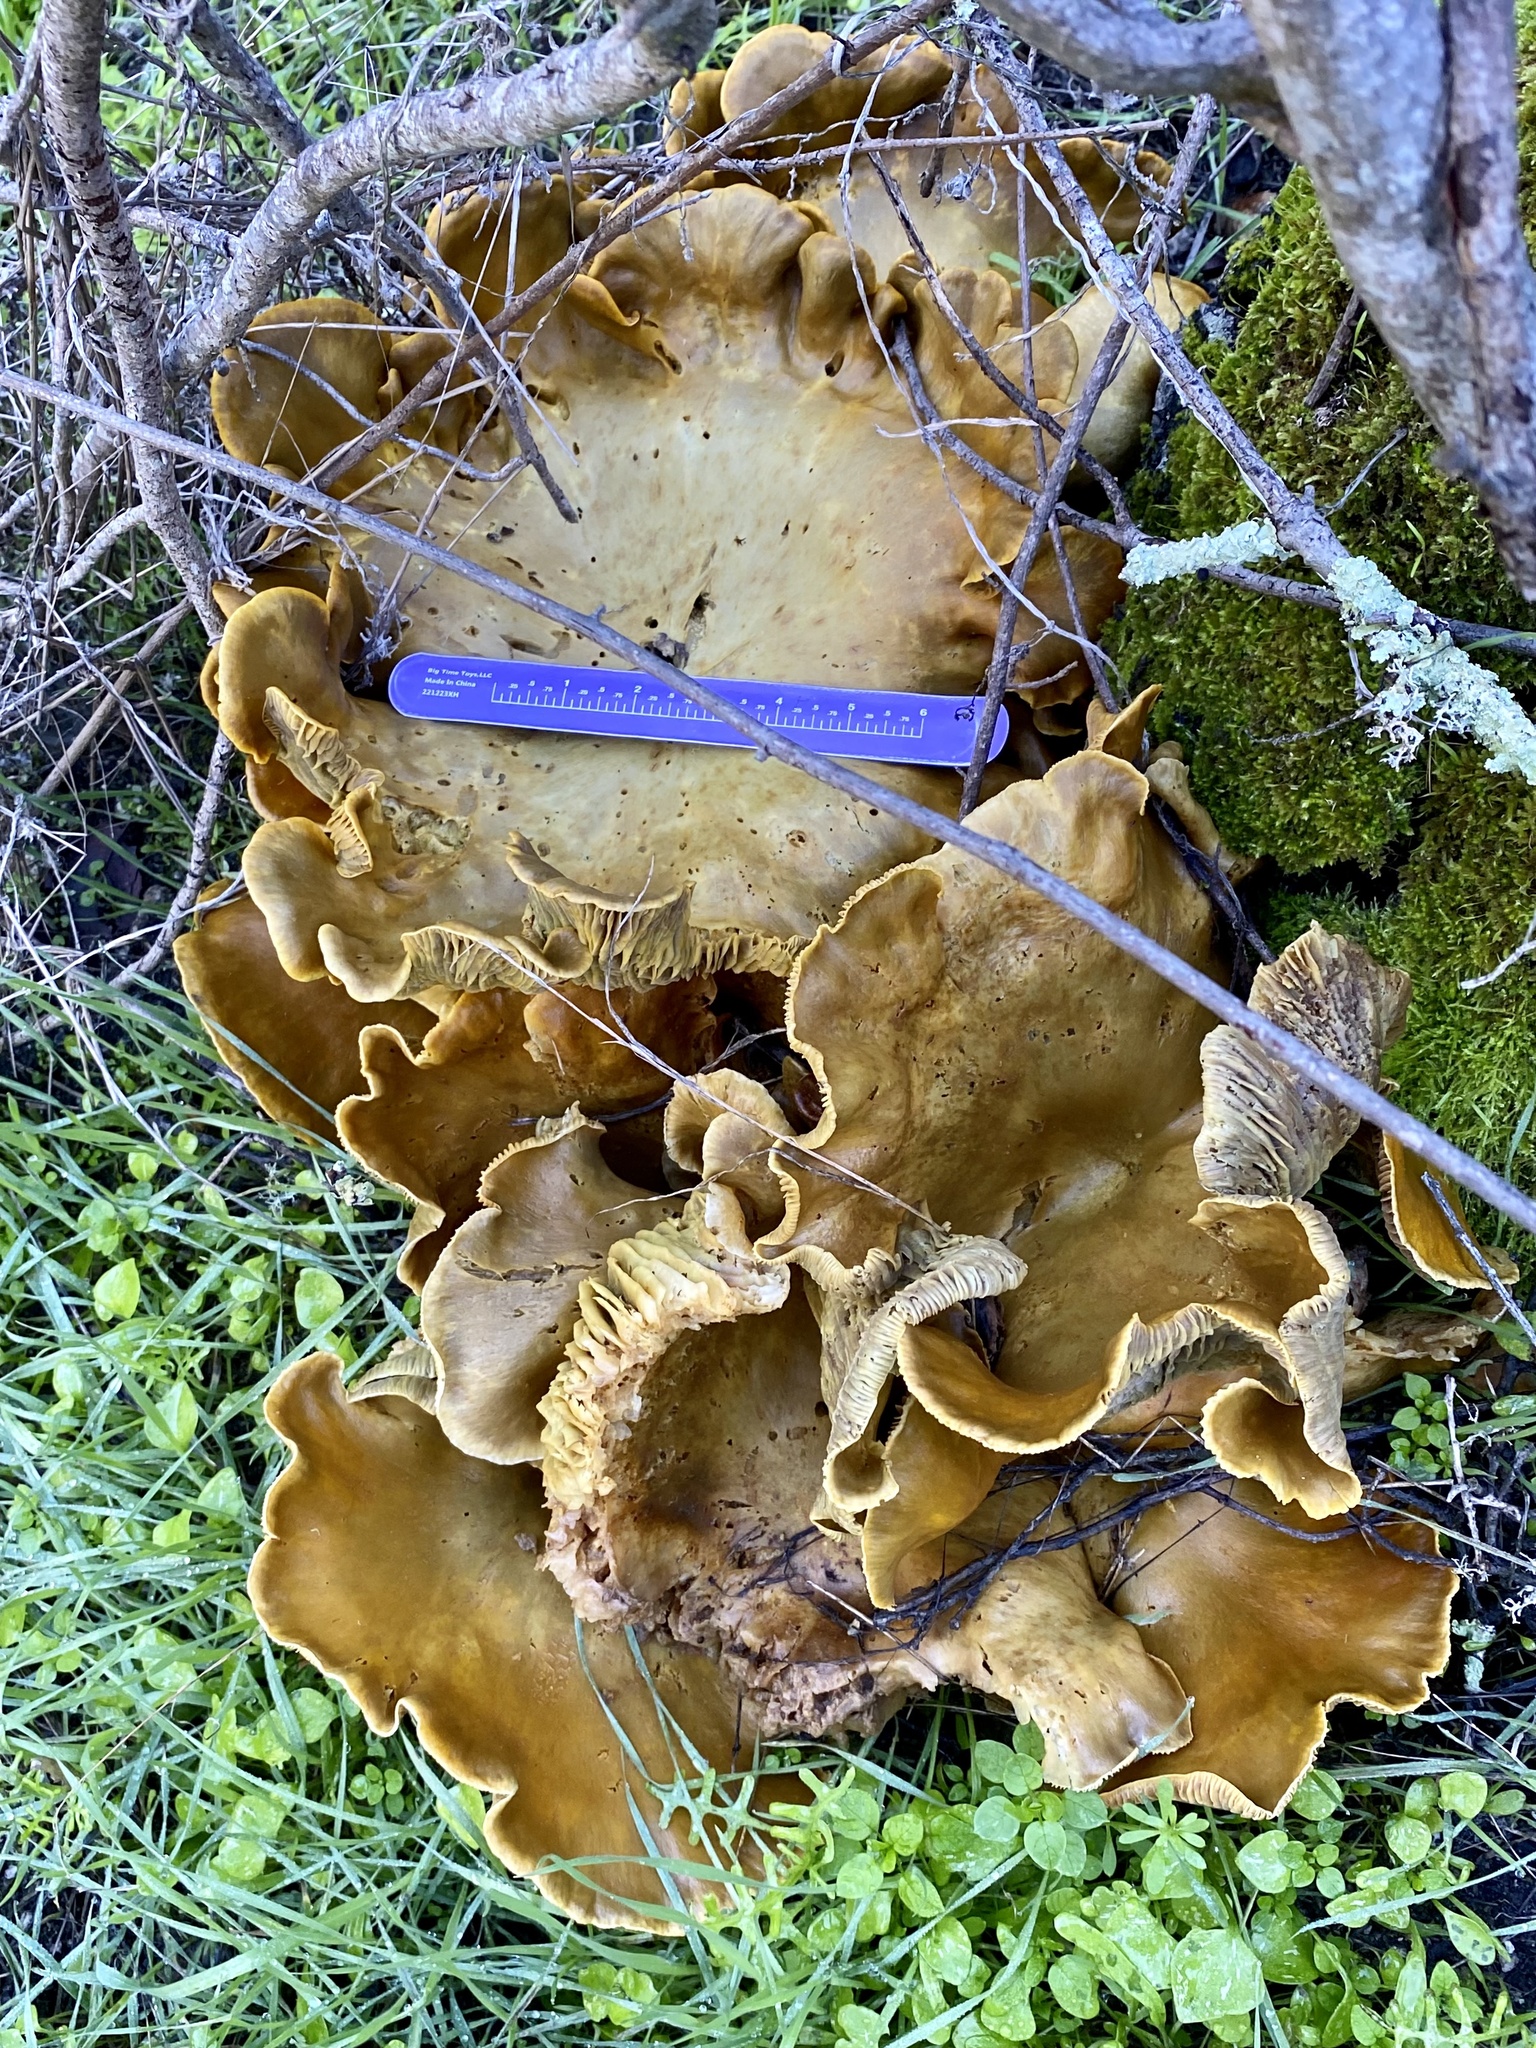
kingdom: Fungi
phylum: Basidiomycota
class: Agaricomycetes
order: Agaricales
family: Omphalotaceae
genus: Omphalotus
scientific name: Omphalotus olivascens
